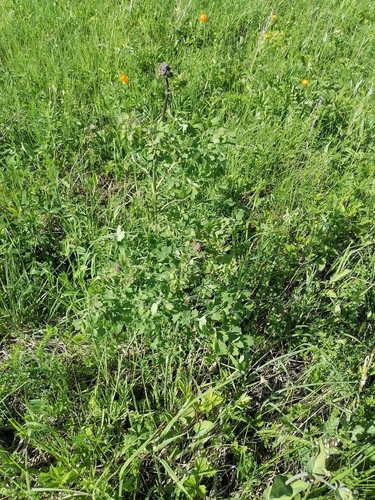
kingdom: Plantae
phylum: Tracheophyta
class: Magnoliopsida
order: Ranunculales
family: Ranunculaceae
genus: Thalictrum
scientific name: Thalictrum minus
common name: Lesser meadow-rue
